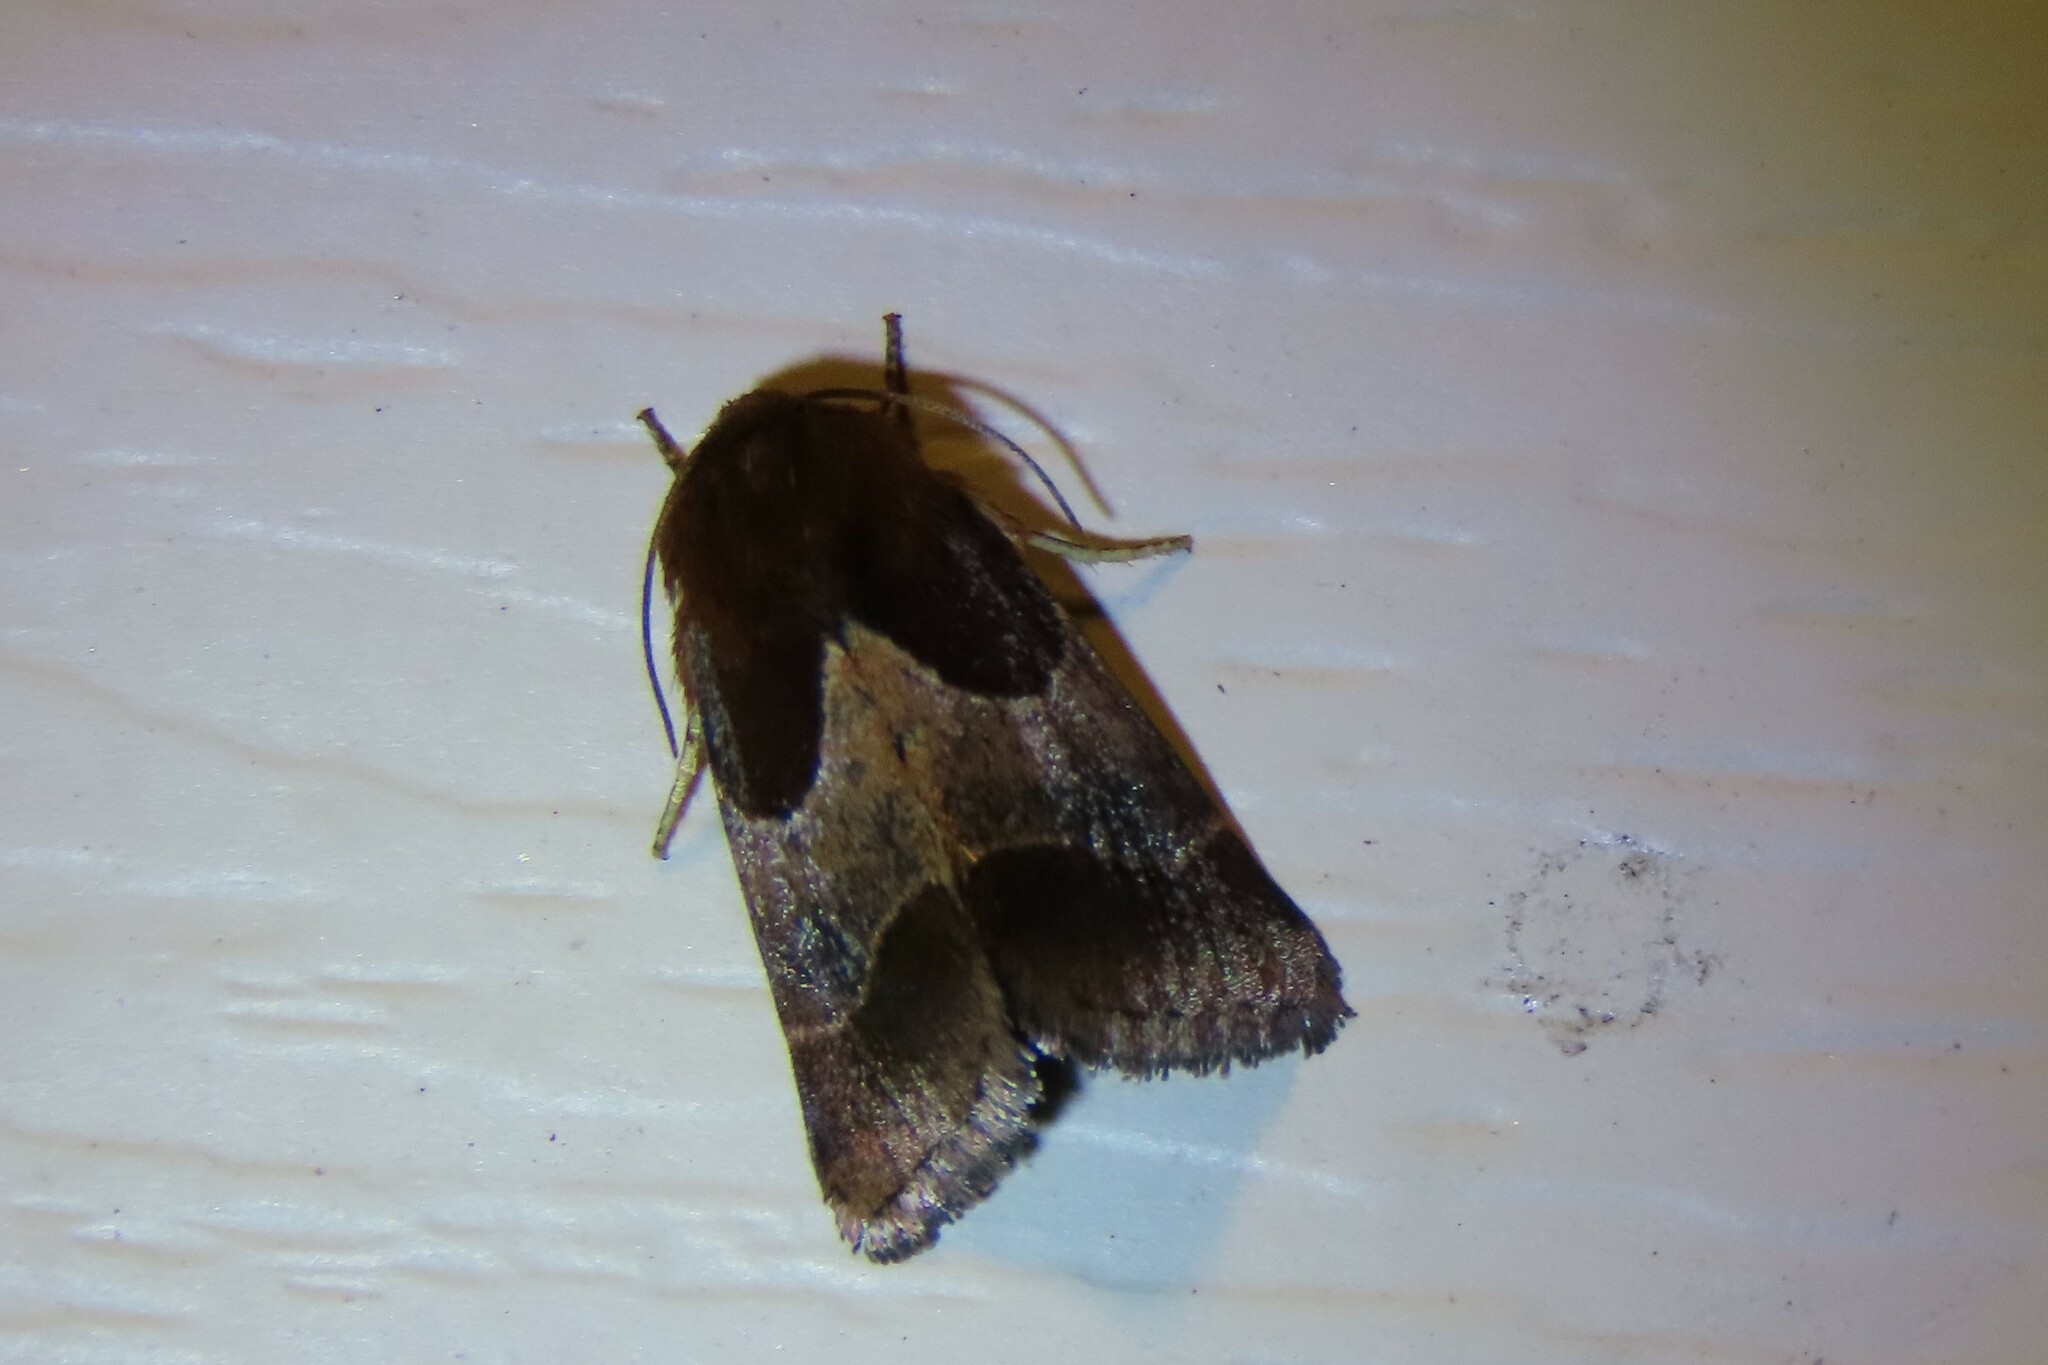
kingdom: Animalia
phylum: Arthropoda
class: Insecta
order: Lepidoptera
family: Noctuidae
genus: Schinia
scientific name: Schinia arcigera
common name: Arcigera flower moth
